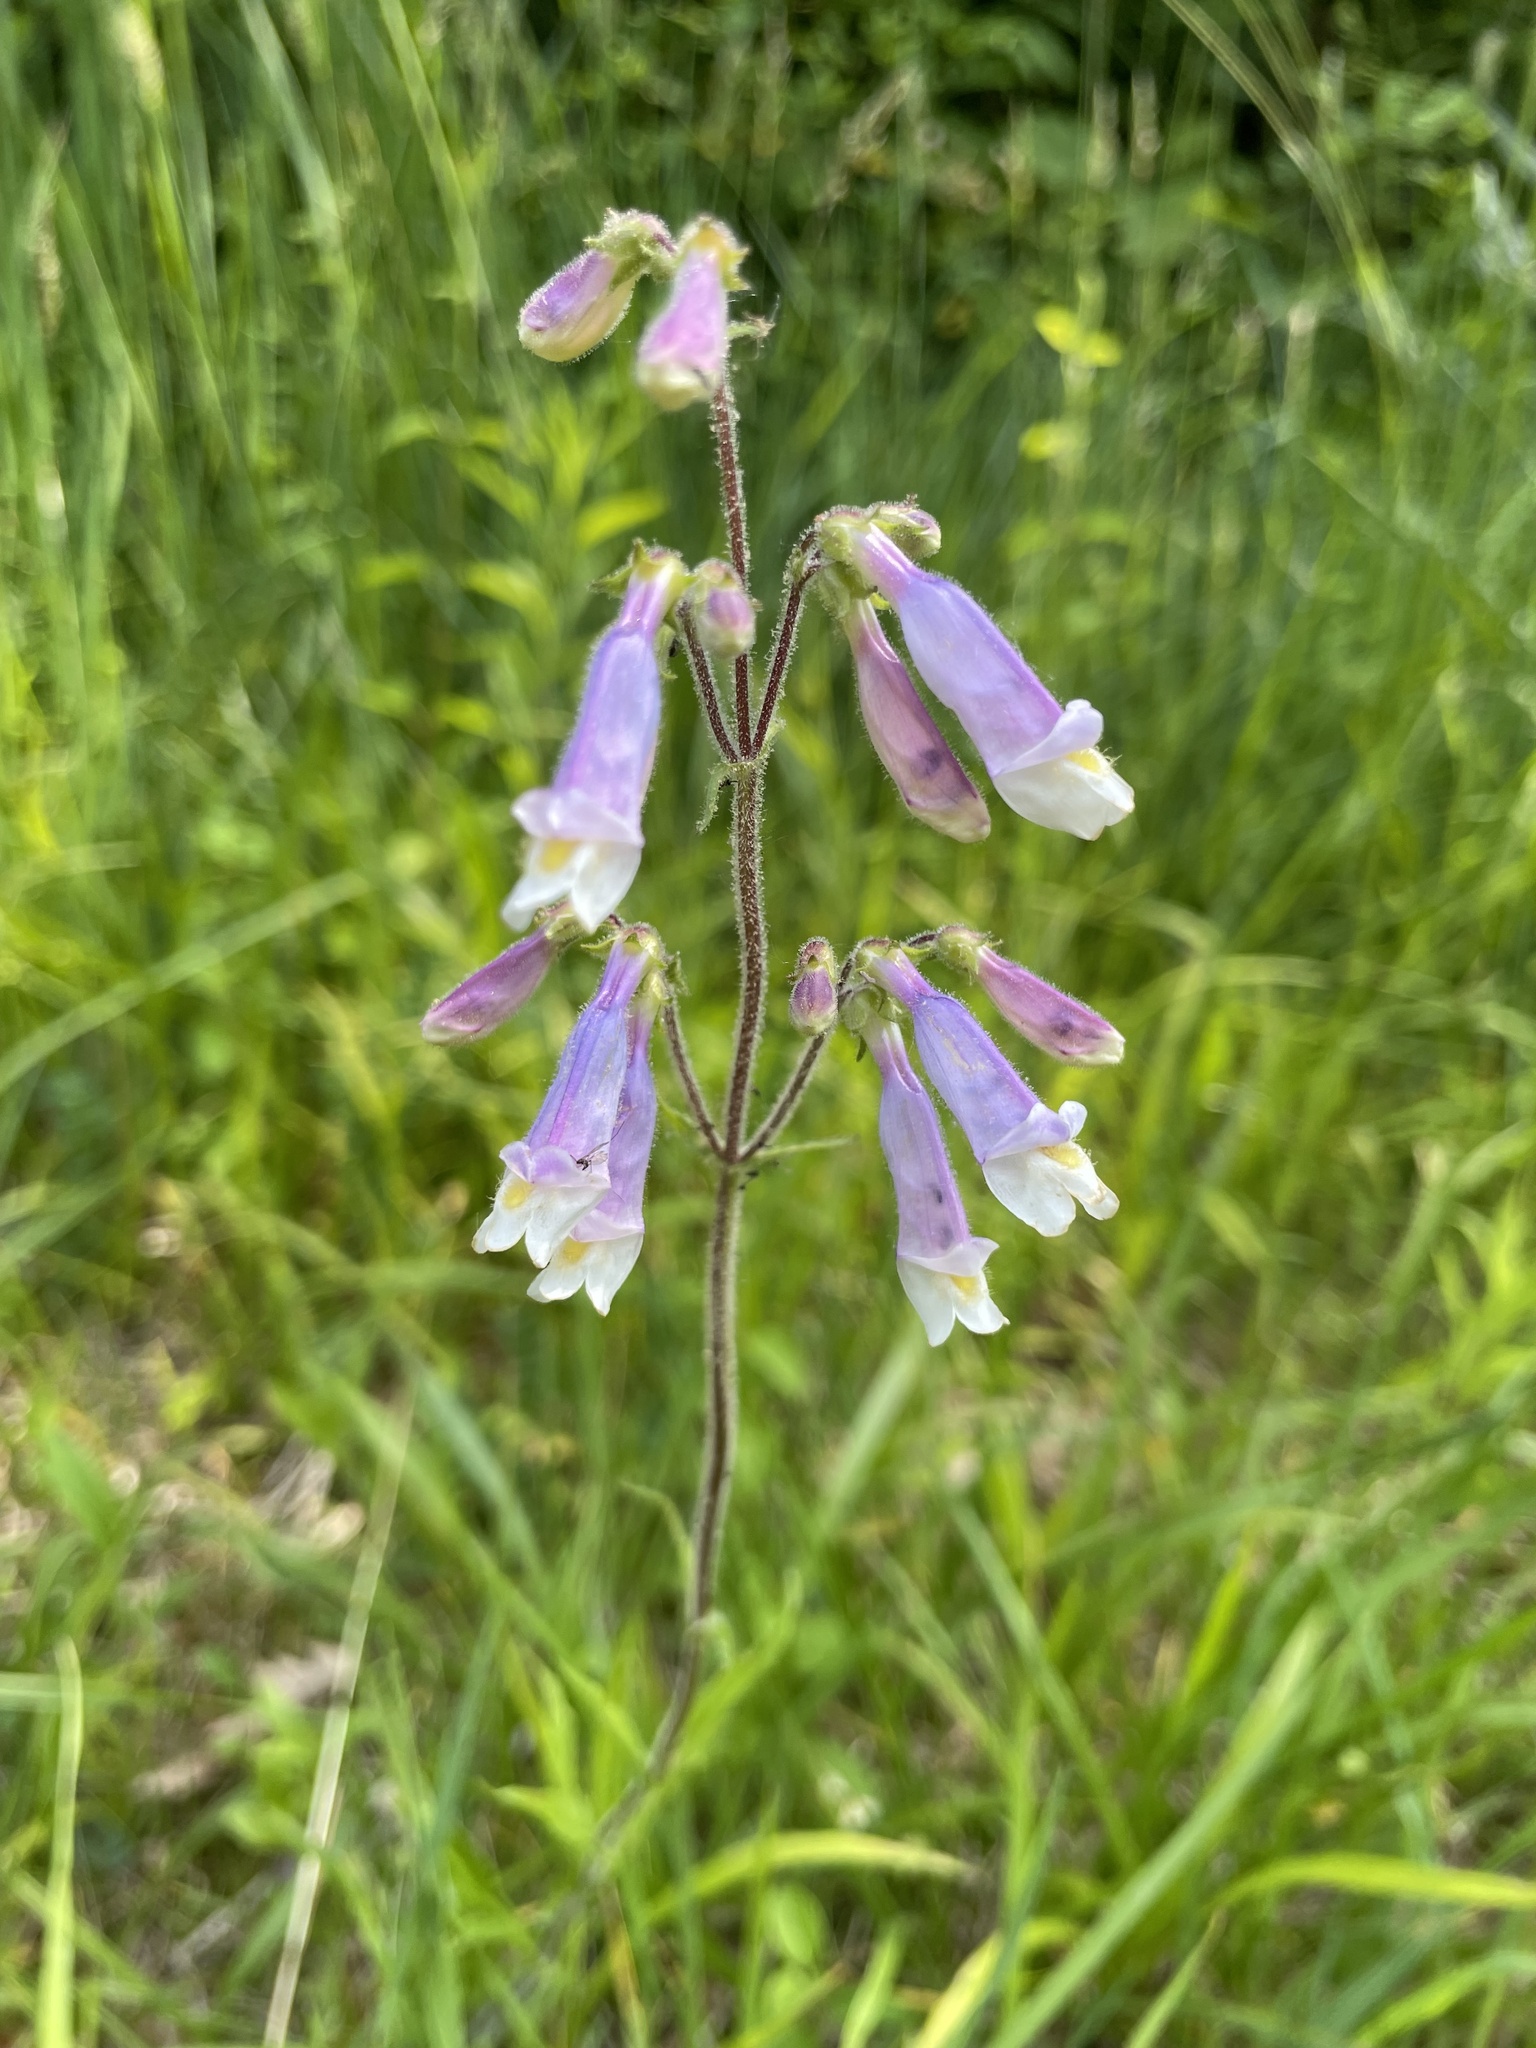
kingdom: Plantae
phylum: Tracheophyta
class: Magnoliopsida
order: Lamiales
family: Plantaginaceae
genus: Penstemon
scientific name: Penstemon hirsutus
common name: Hairy beardtongue
